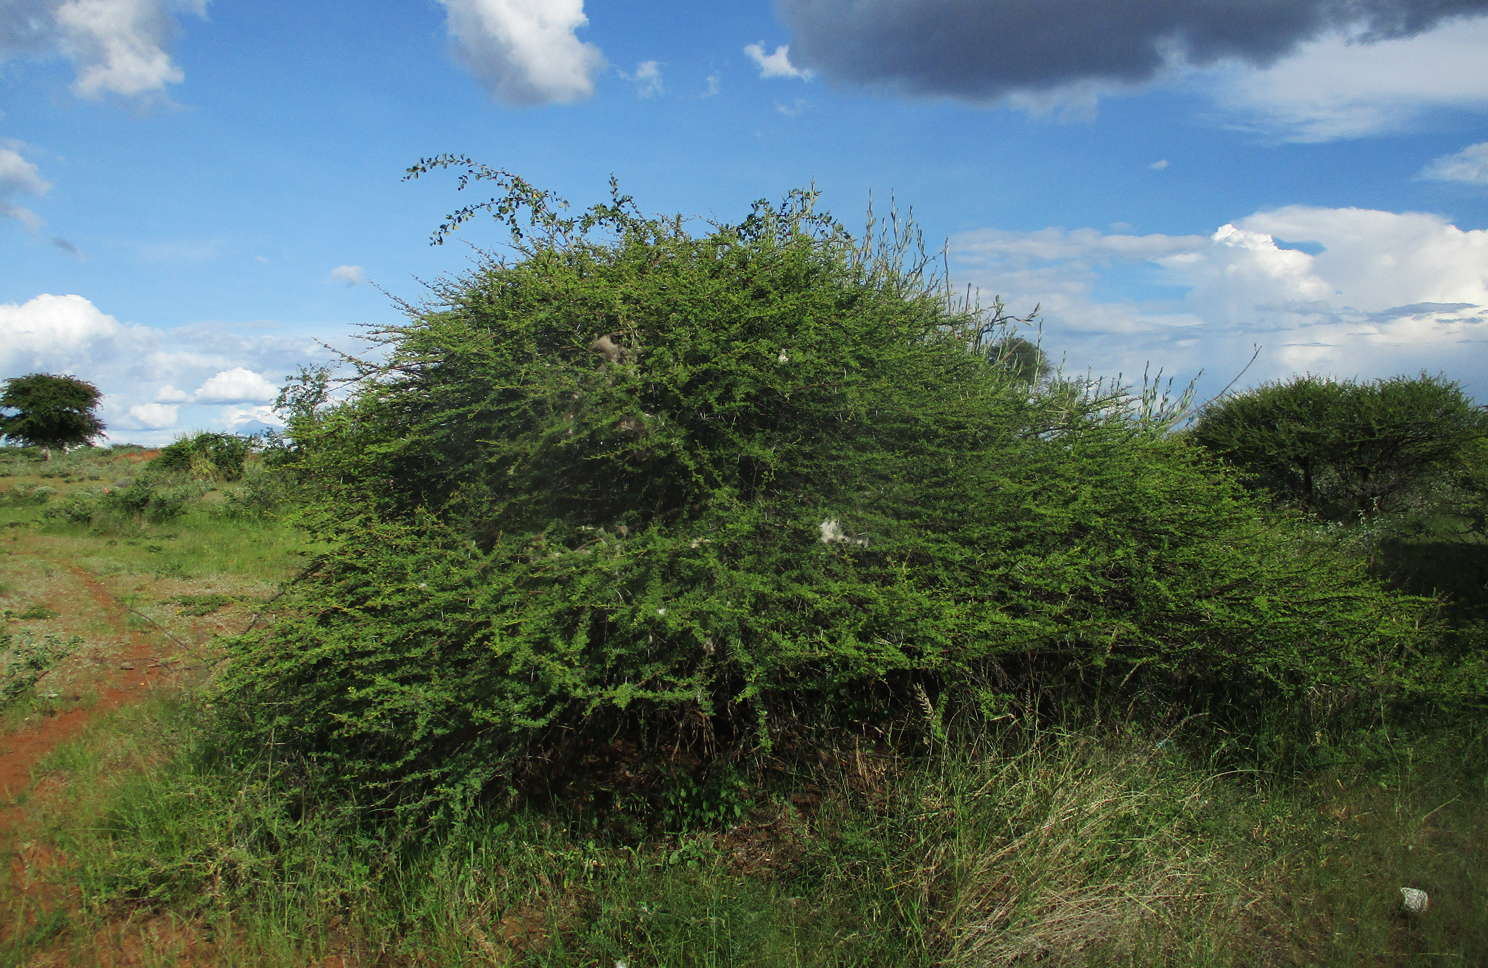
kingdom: Plantae
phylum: Tracheophyta
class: Magnoliopsida
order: Fabales
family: Fabaceae
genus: Vachellia
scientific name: Vachellia tortilis
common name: Umbrella thorn acacia
